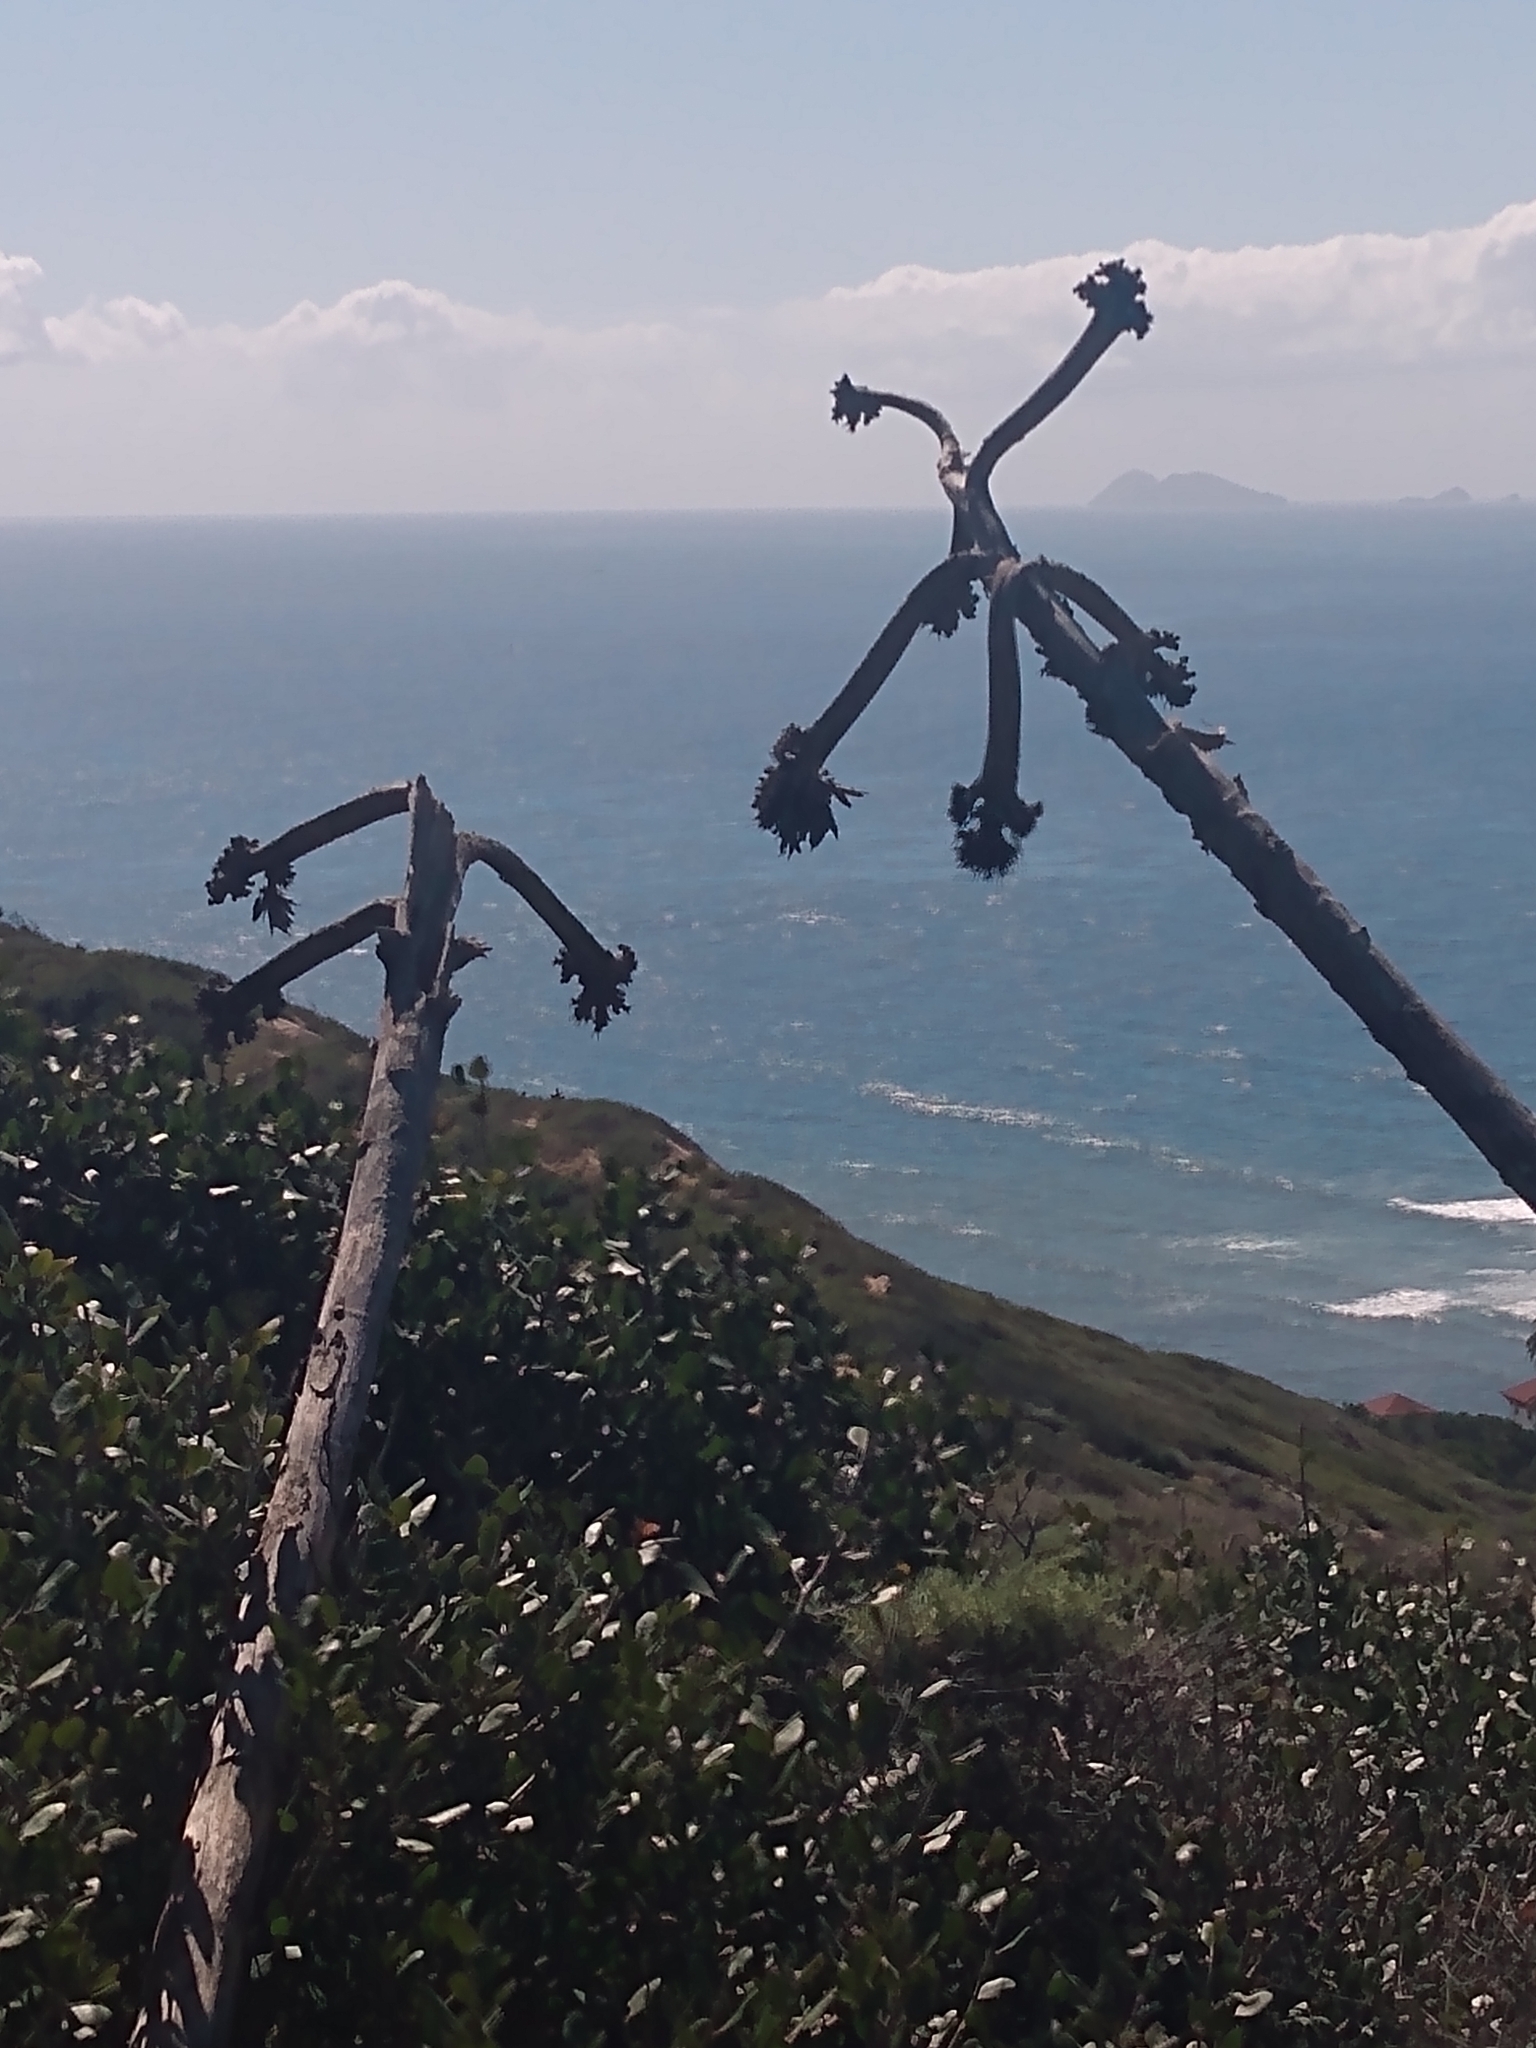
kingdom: Plantae
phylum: Tracheophyta
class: Liliopsida
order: Asparagales
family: Asparagaceae
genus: Agave
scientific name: Agave shawii
